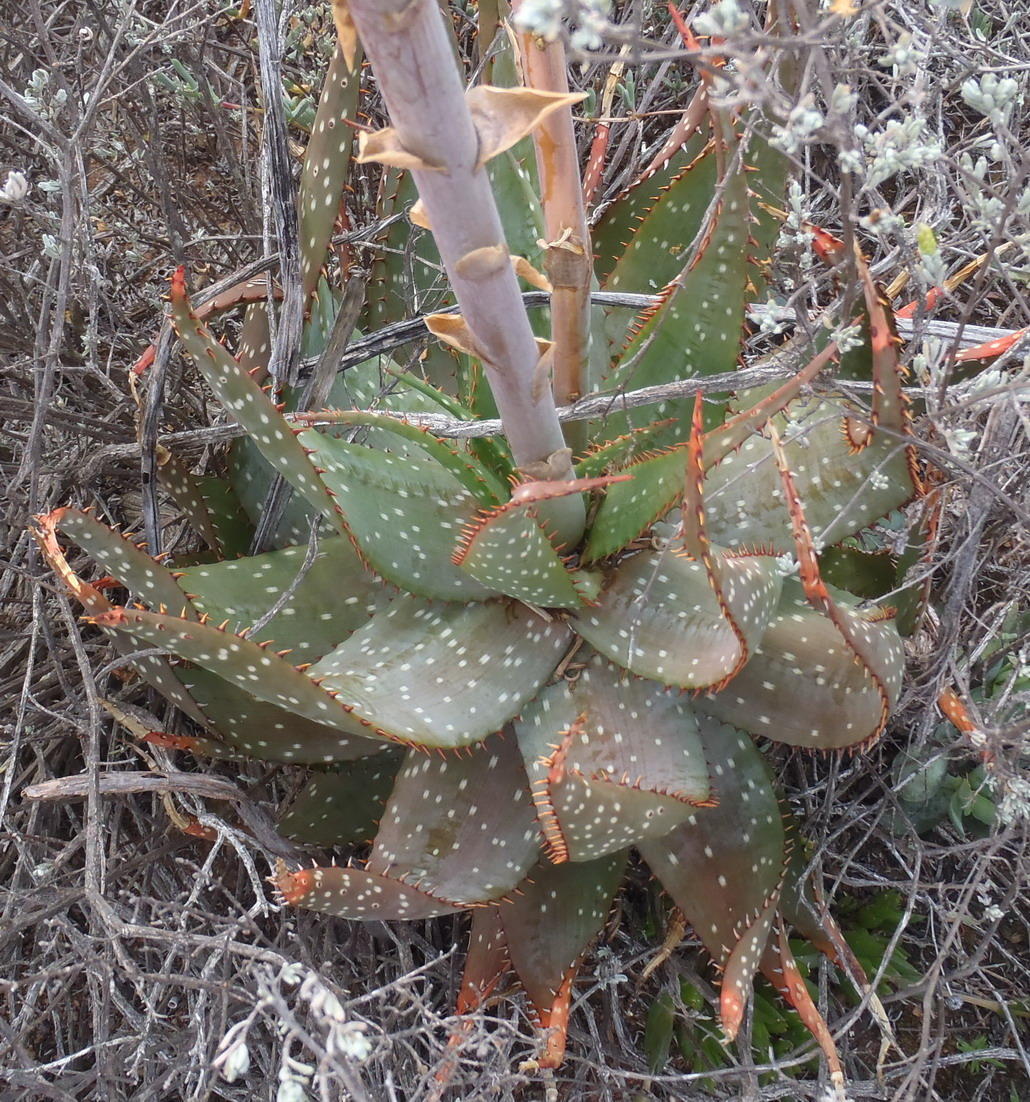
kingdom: Plantae
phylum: Tracheophyta
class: Liliopsida
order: Asparagales
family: Asphodelaceae
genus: Aloe
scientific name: Aloe microstigma
